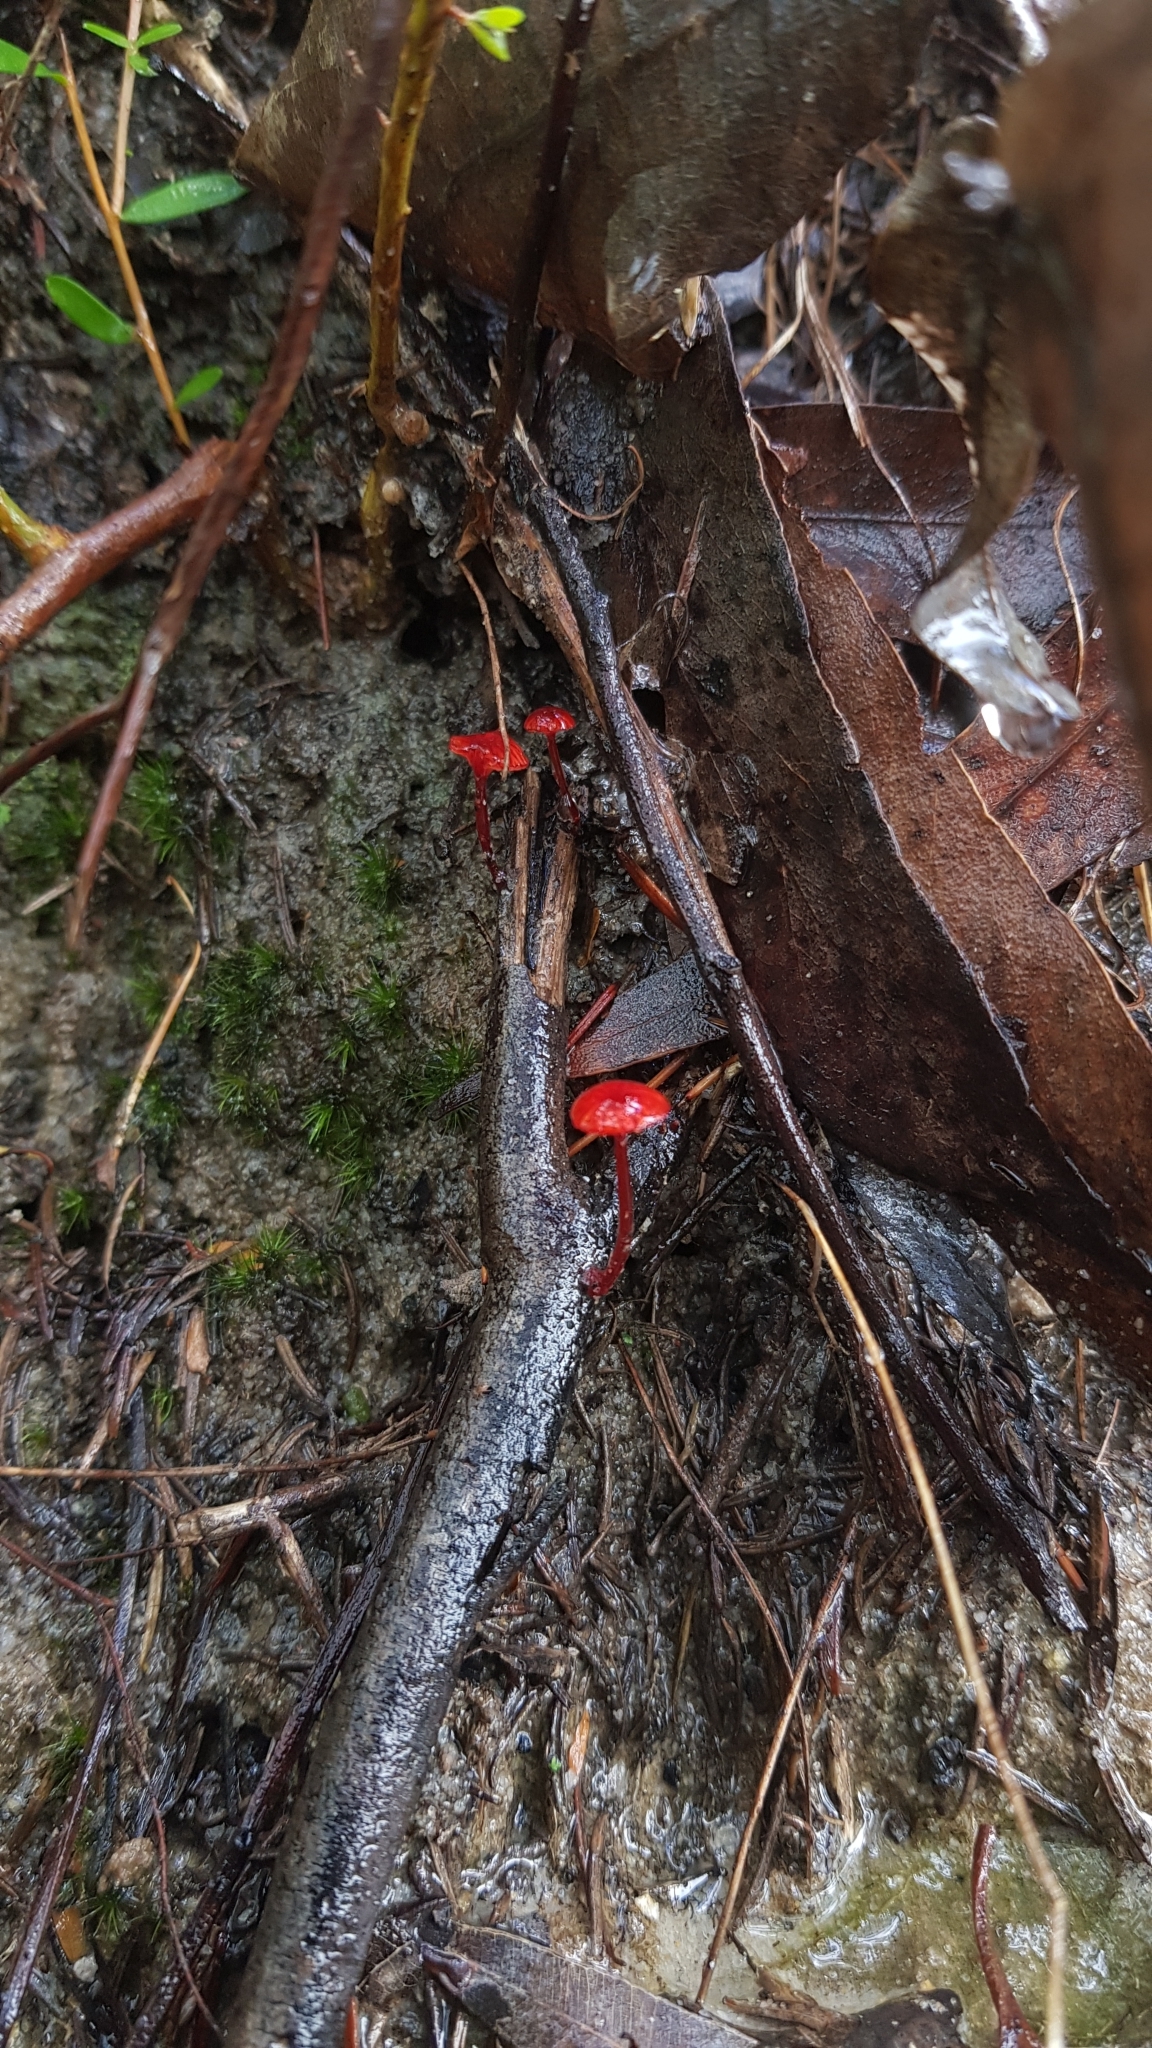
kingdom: Fungi
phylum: Basidiomycota
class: Agaricomycetes
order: Agaricales
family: Mycenaceae
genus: Cruentomycena
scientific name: Cruentomycena viscidocruenta
